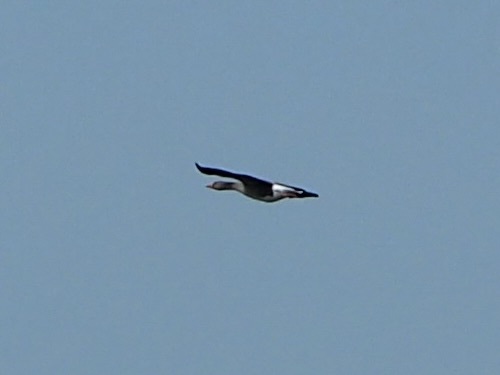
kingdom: Animalia
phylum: Chordata
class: Aves
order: Anseriformes
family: Anatidae
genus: Anser
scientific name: Anser anser
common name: Greylag goose
